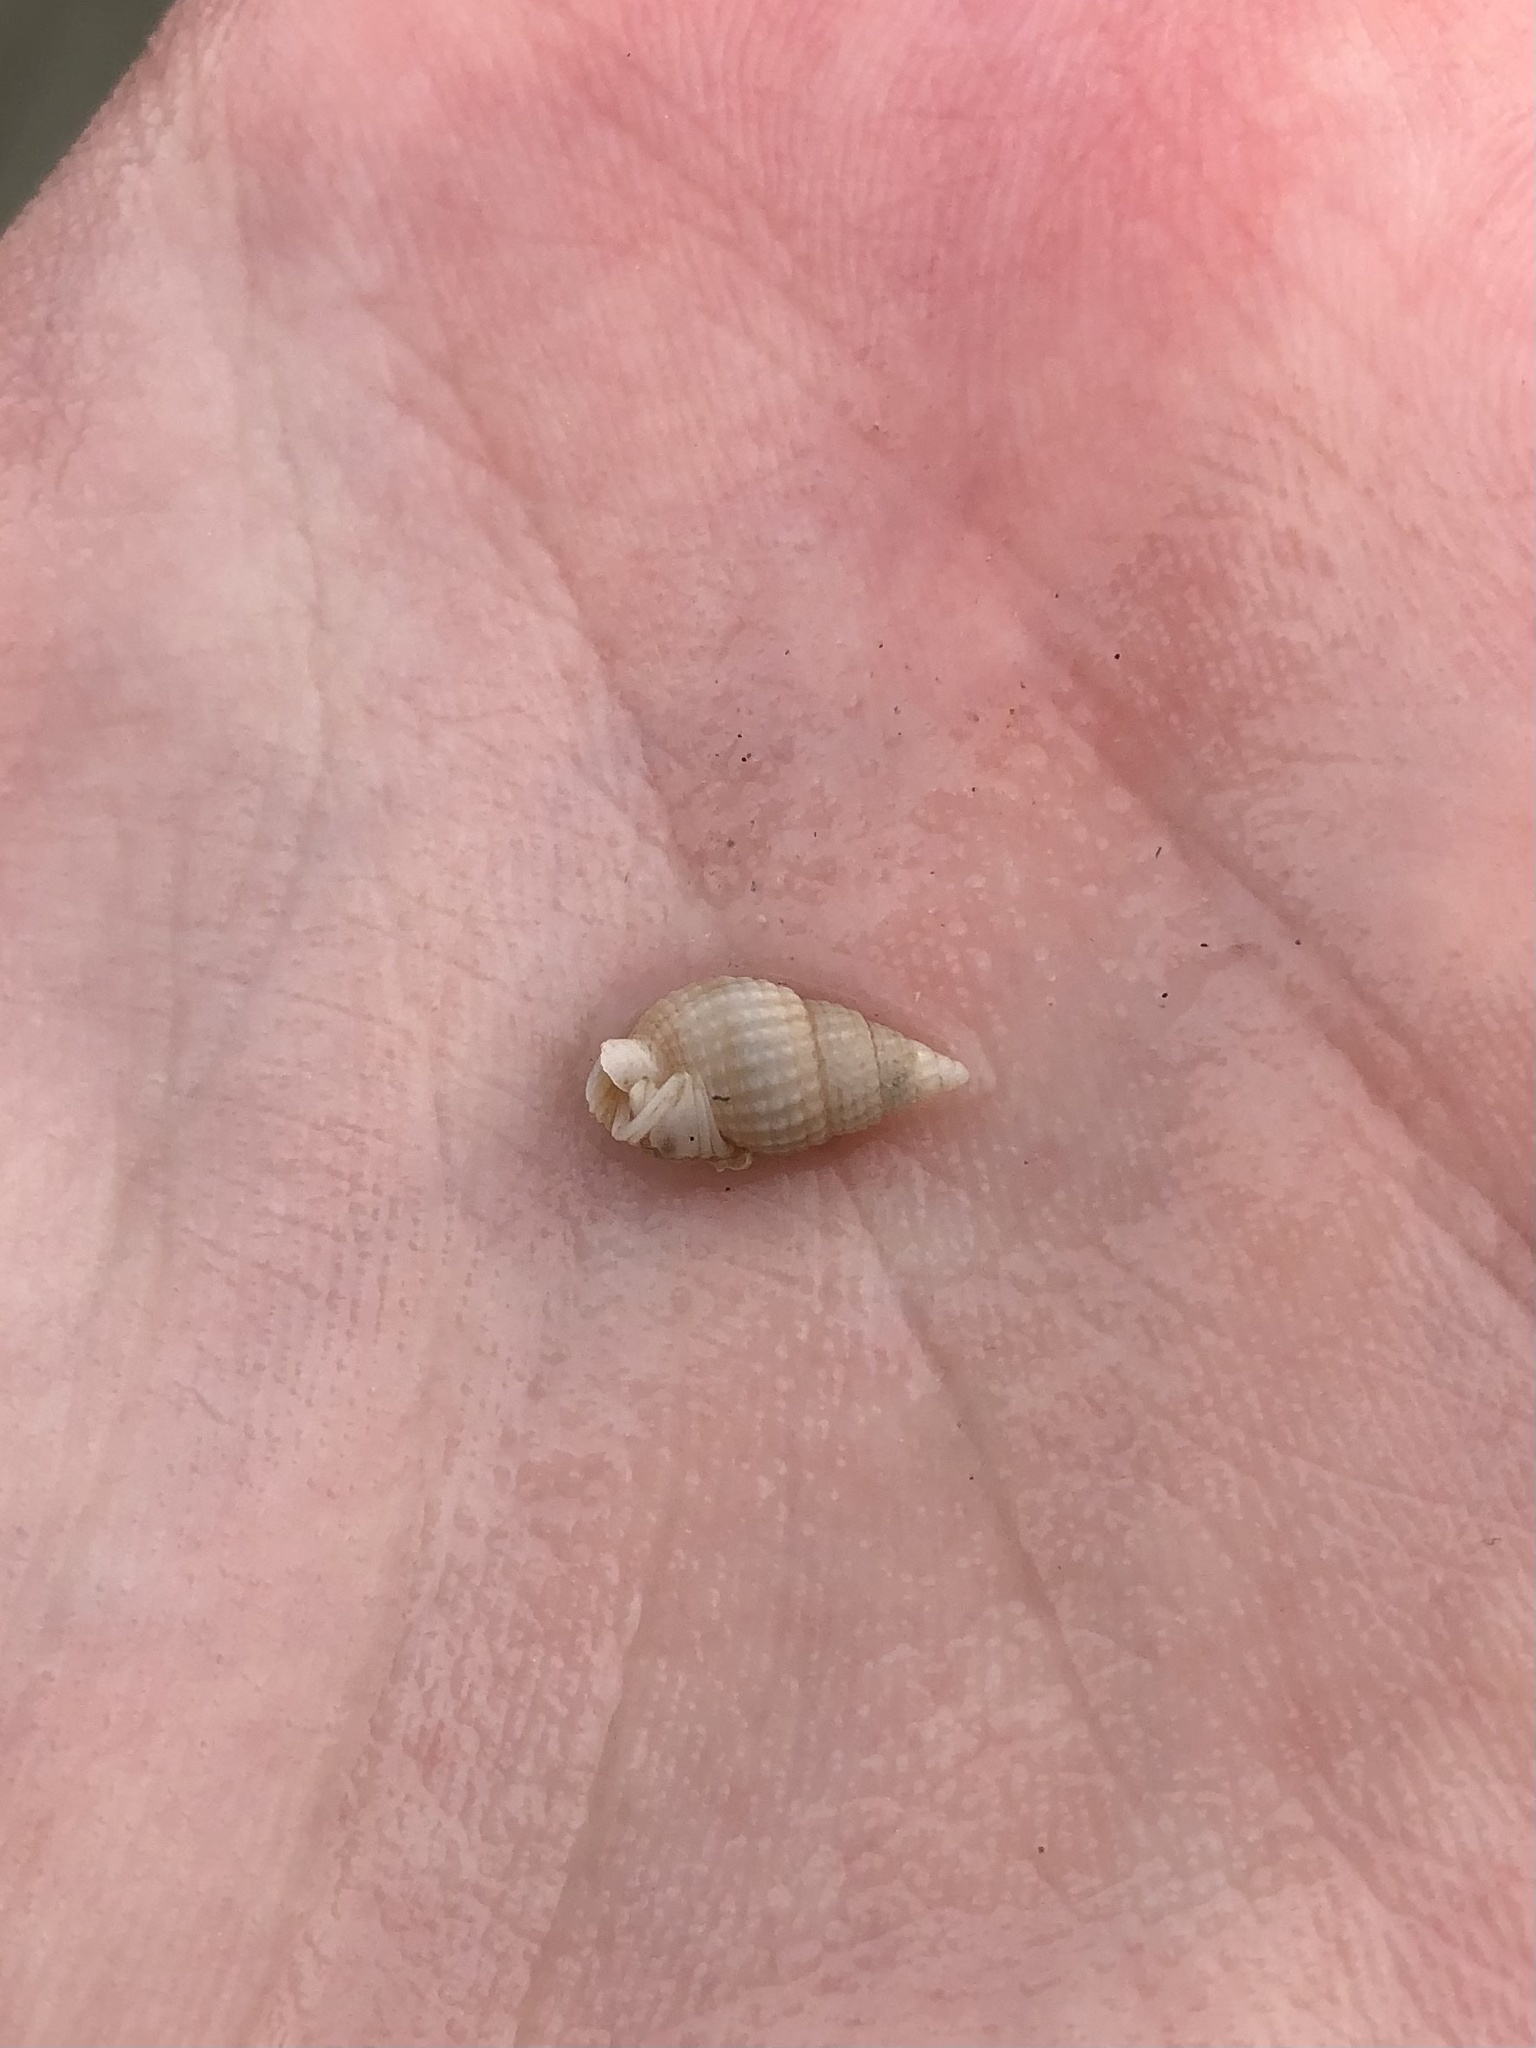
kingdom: Animalia
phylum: Mollusca
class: Gastropoda
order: Neogastropoda
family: Nassariidae
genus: Ilyanassa
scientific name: Ilyanassa trivittata
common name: Three-line mudsnail
